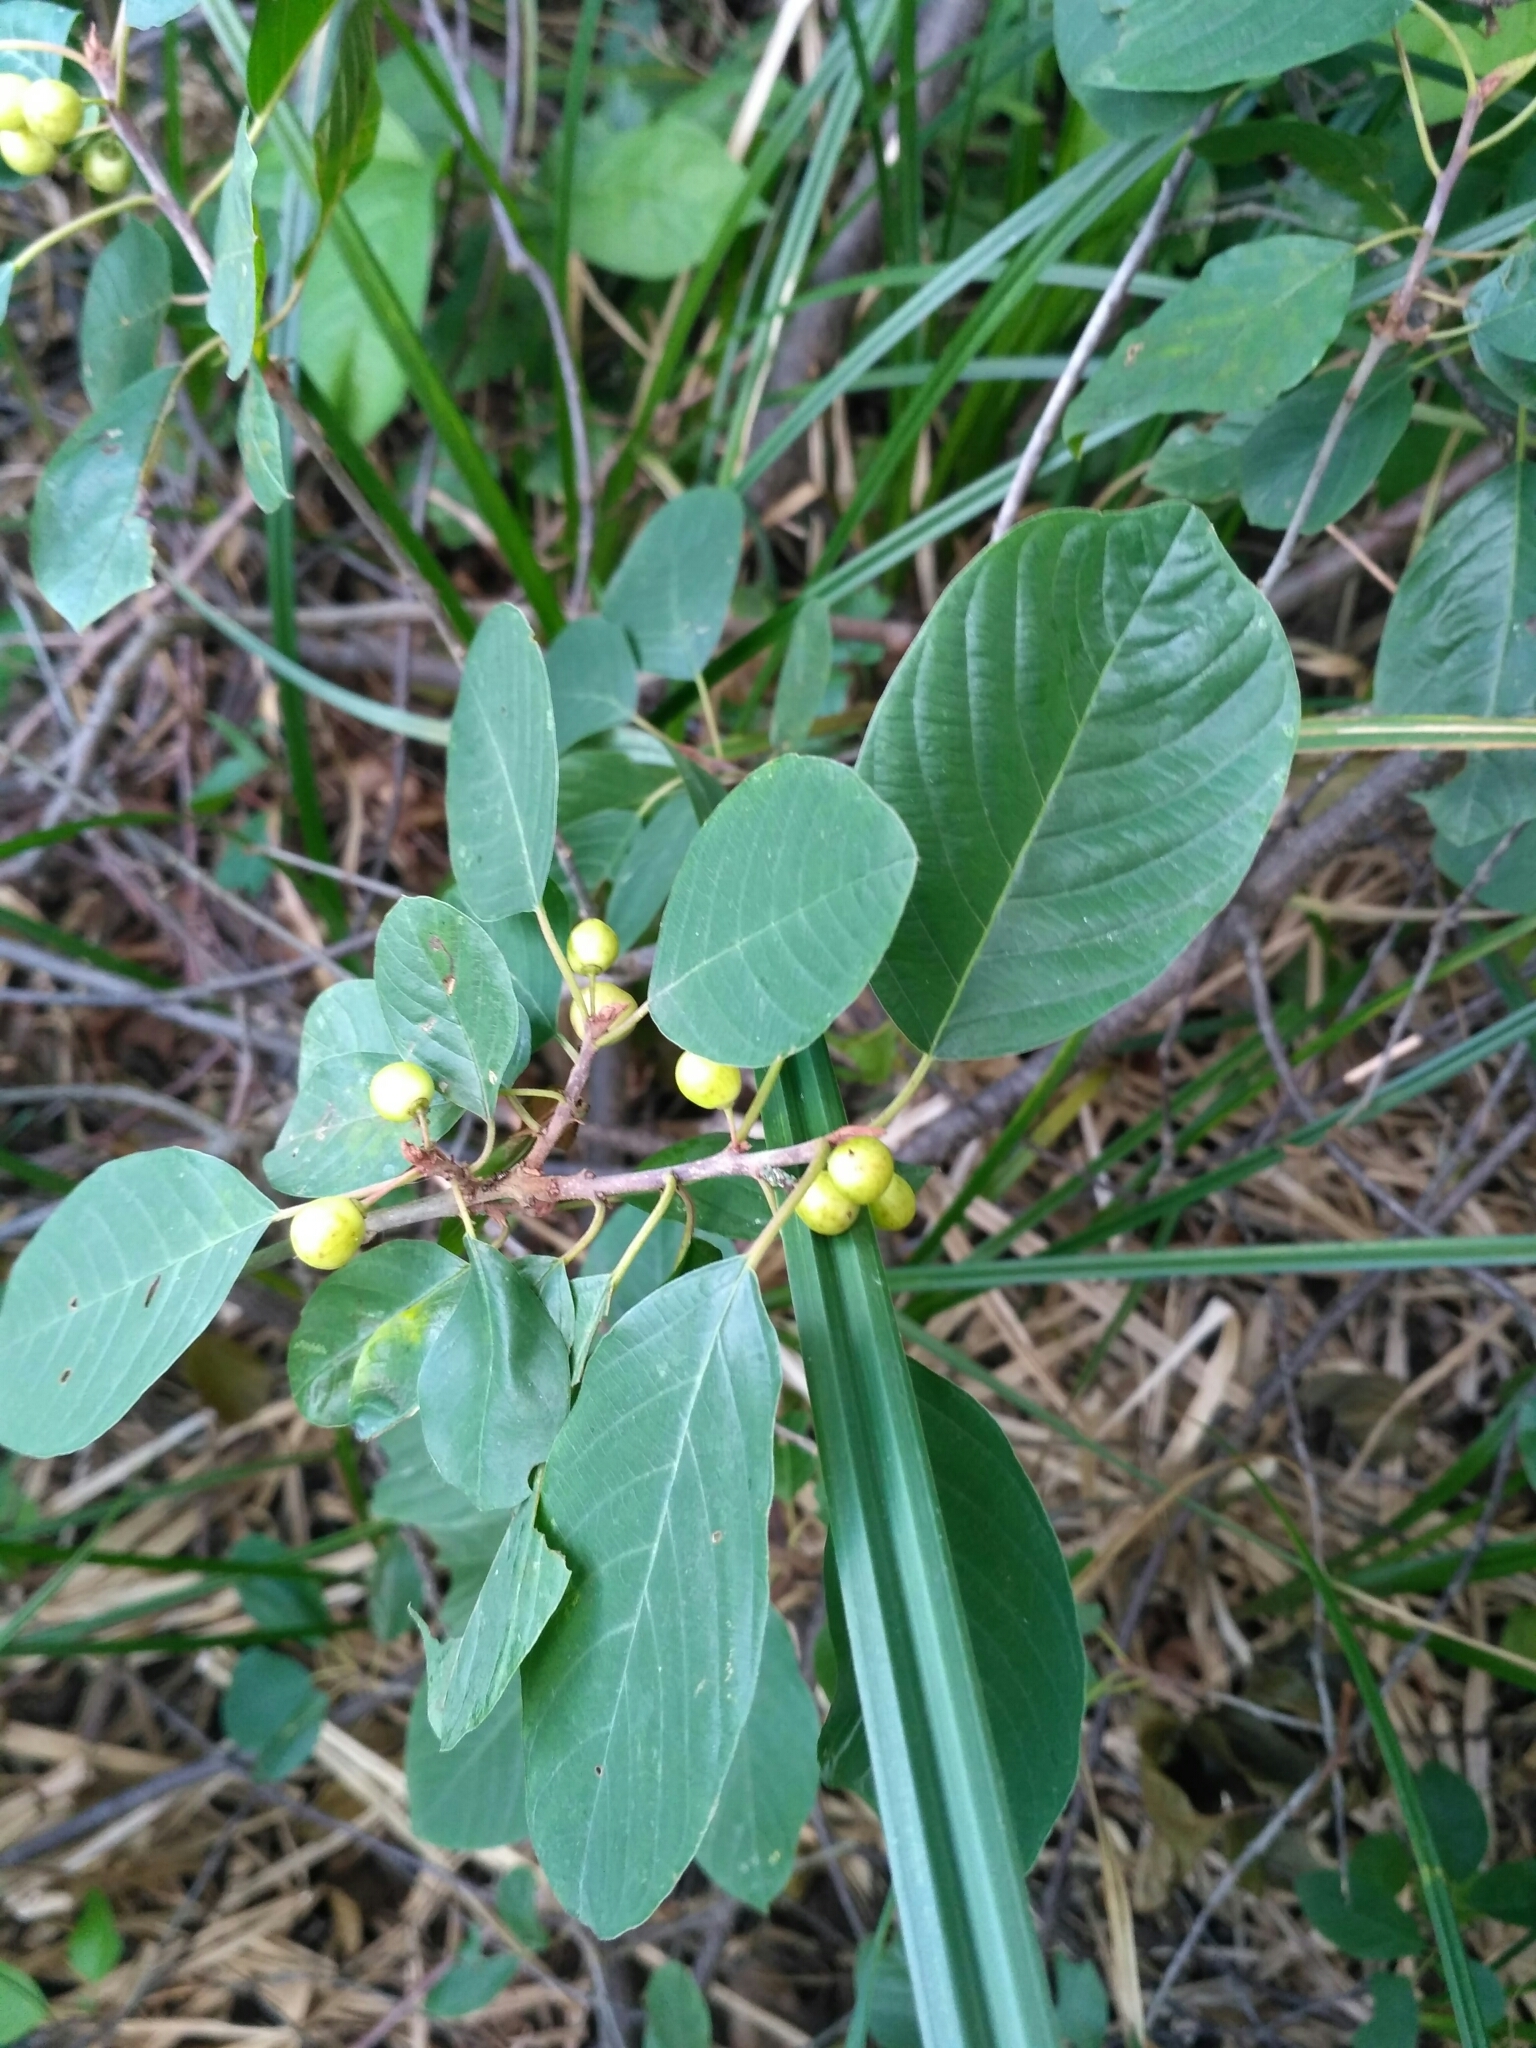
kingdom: Plantae
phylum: Tracheophyta
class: Magnoliopsida
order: Rosales
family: Rhamnaceae
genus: Frangula
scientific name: Frangula alnus
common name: Alder buckthorn
